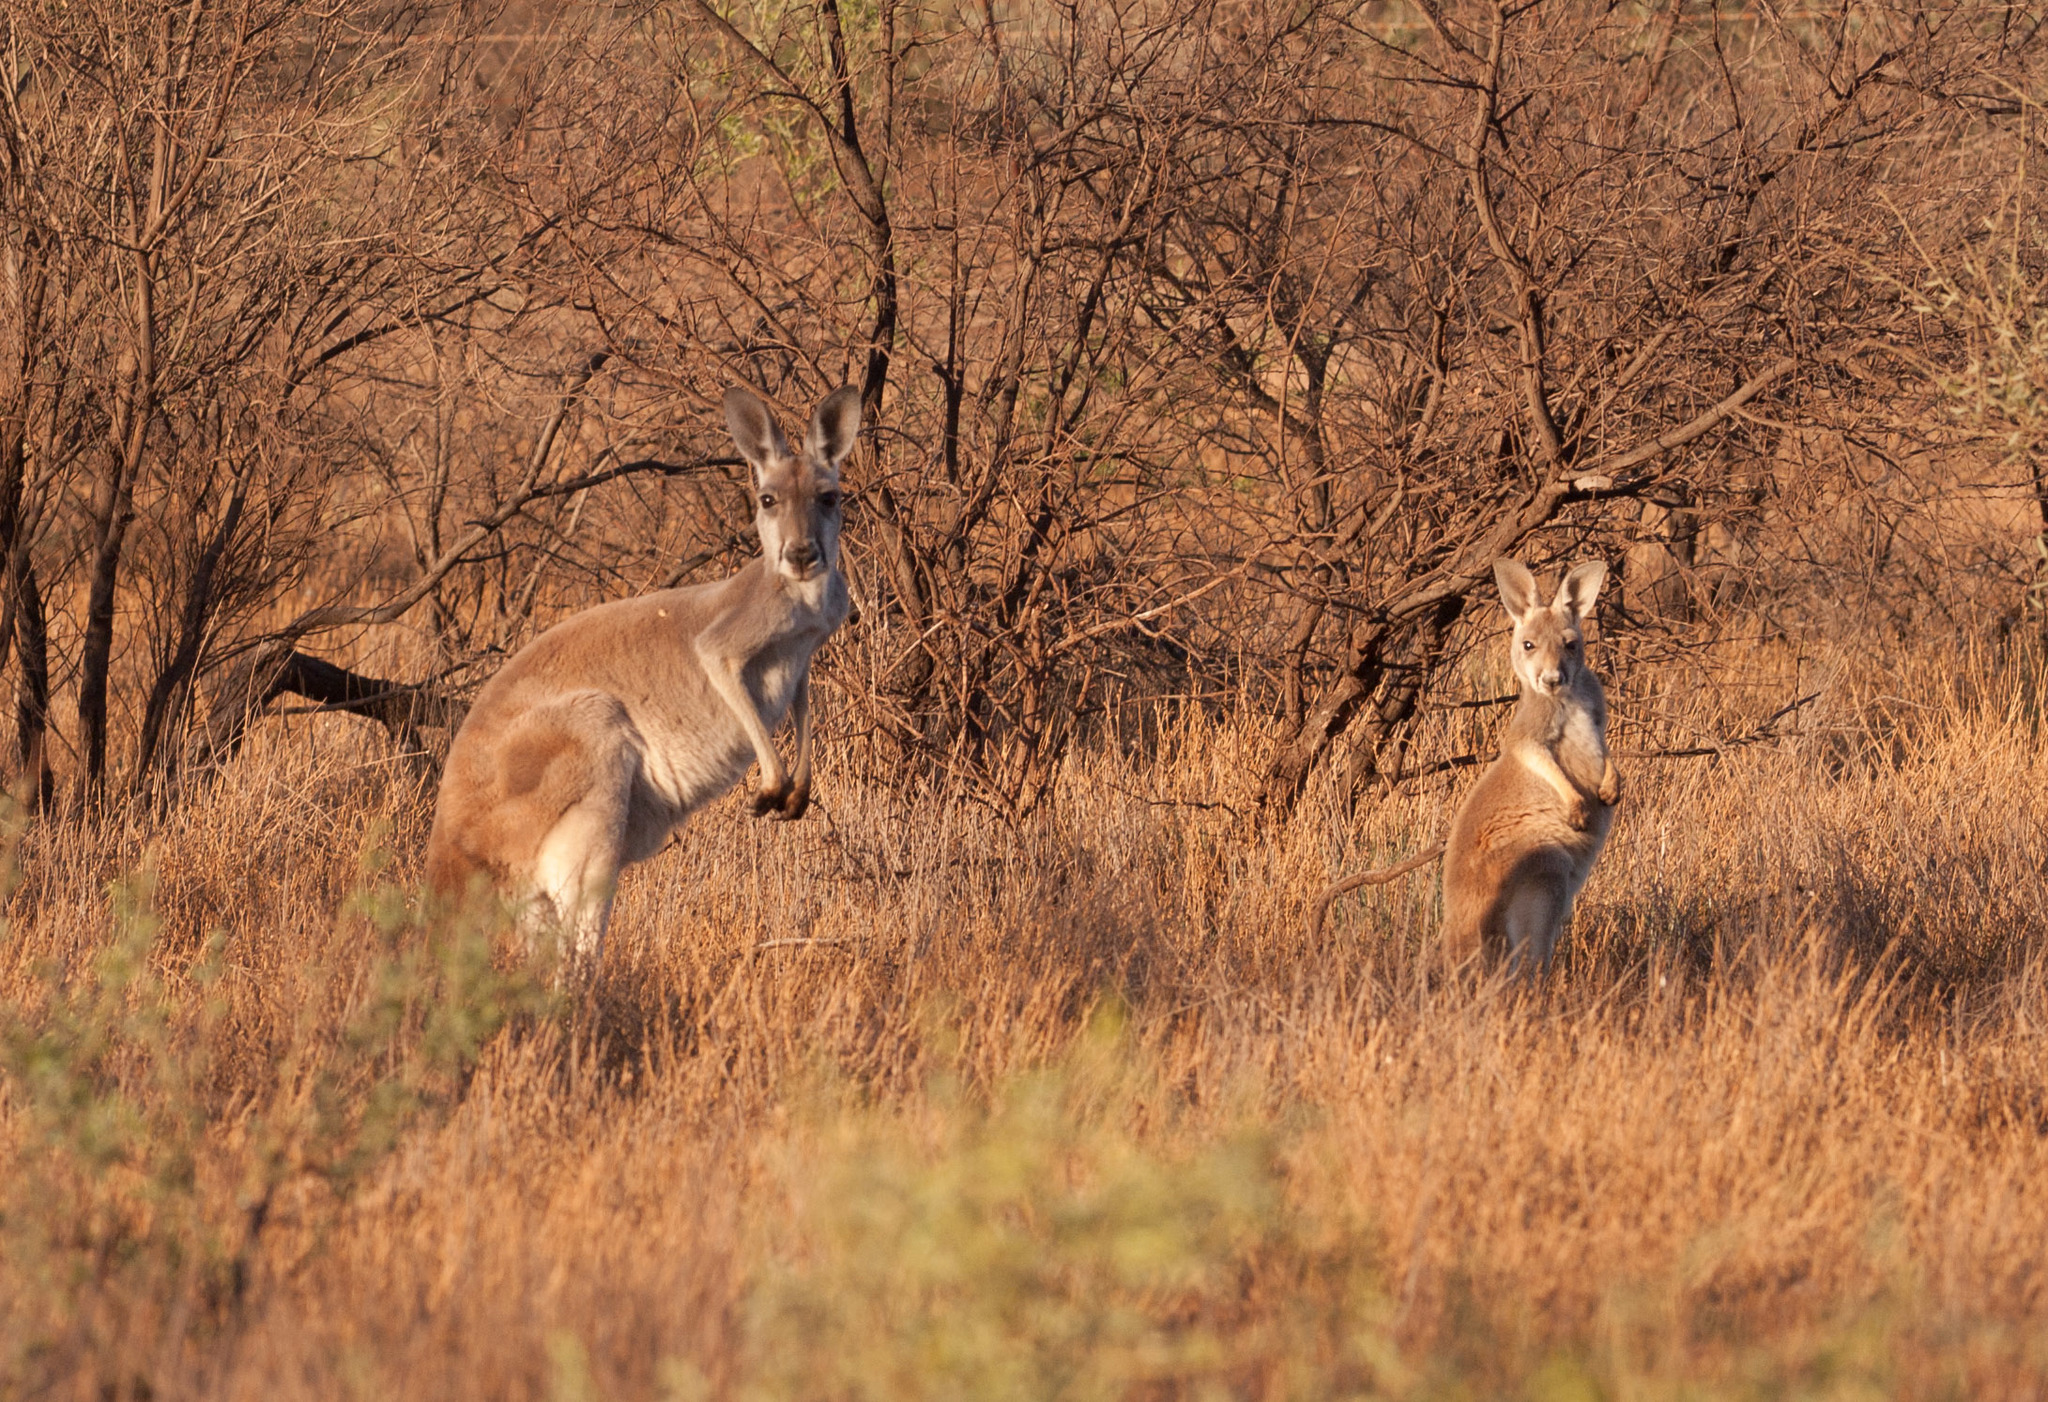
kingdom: Animalia
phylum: Chordata
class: Mammalia
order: Diprotodontia
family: Macropodidae
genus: Macropus
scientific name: Macropus rufus
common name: Red kangaroo
